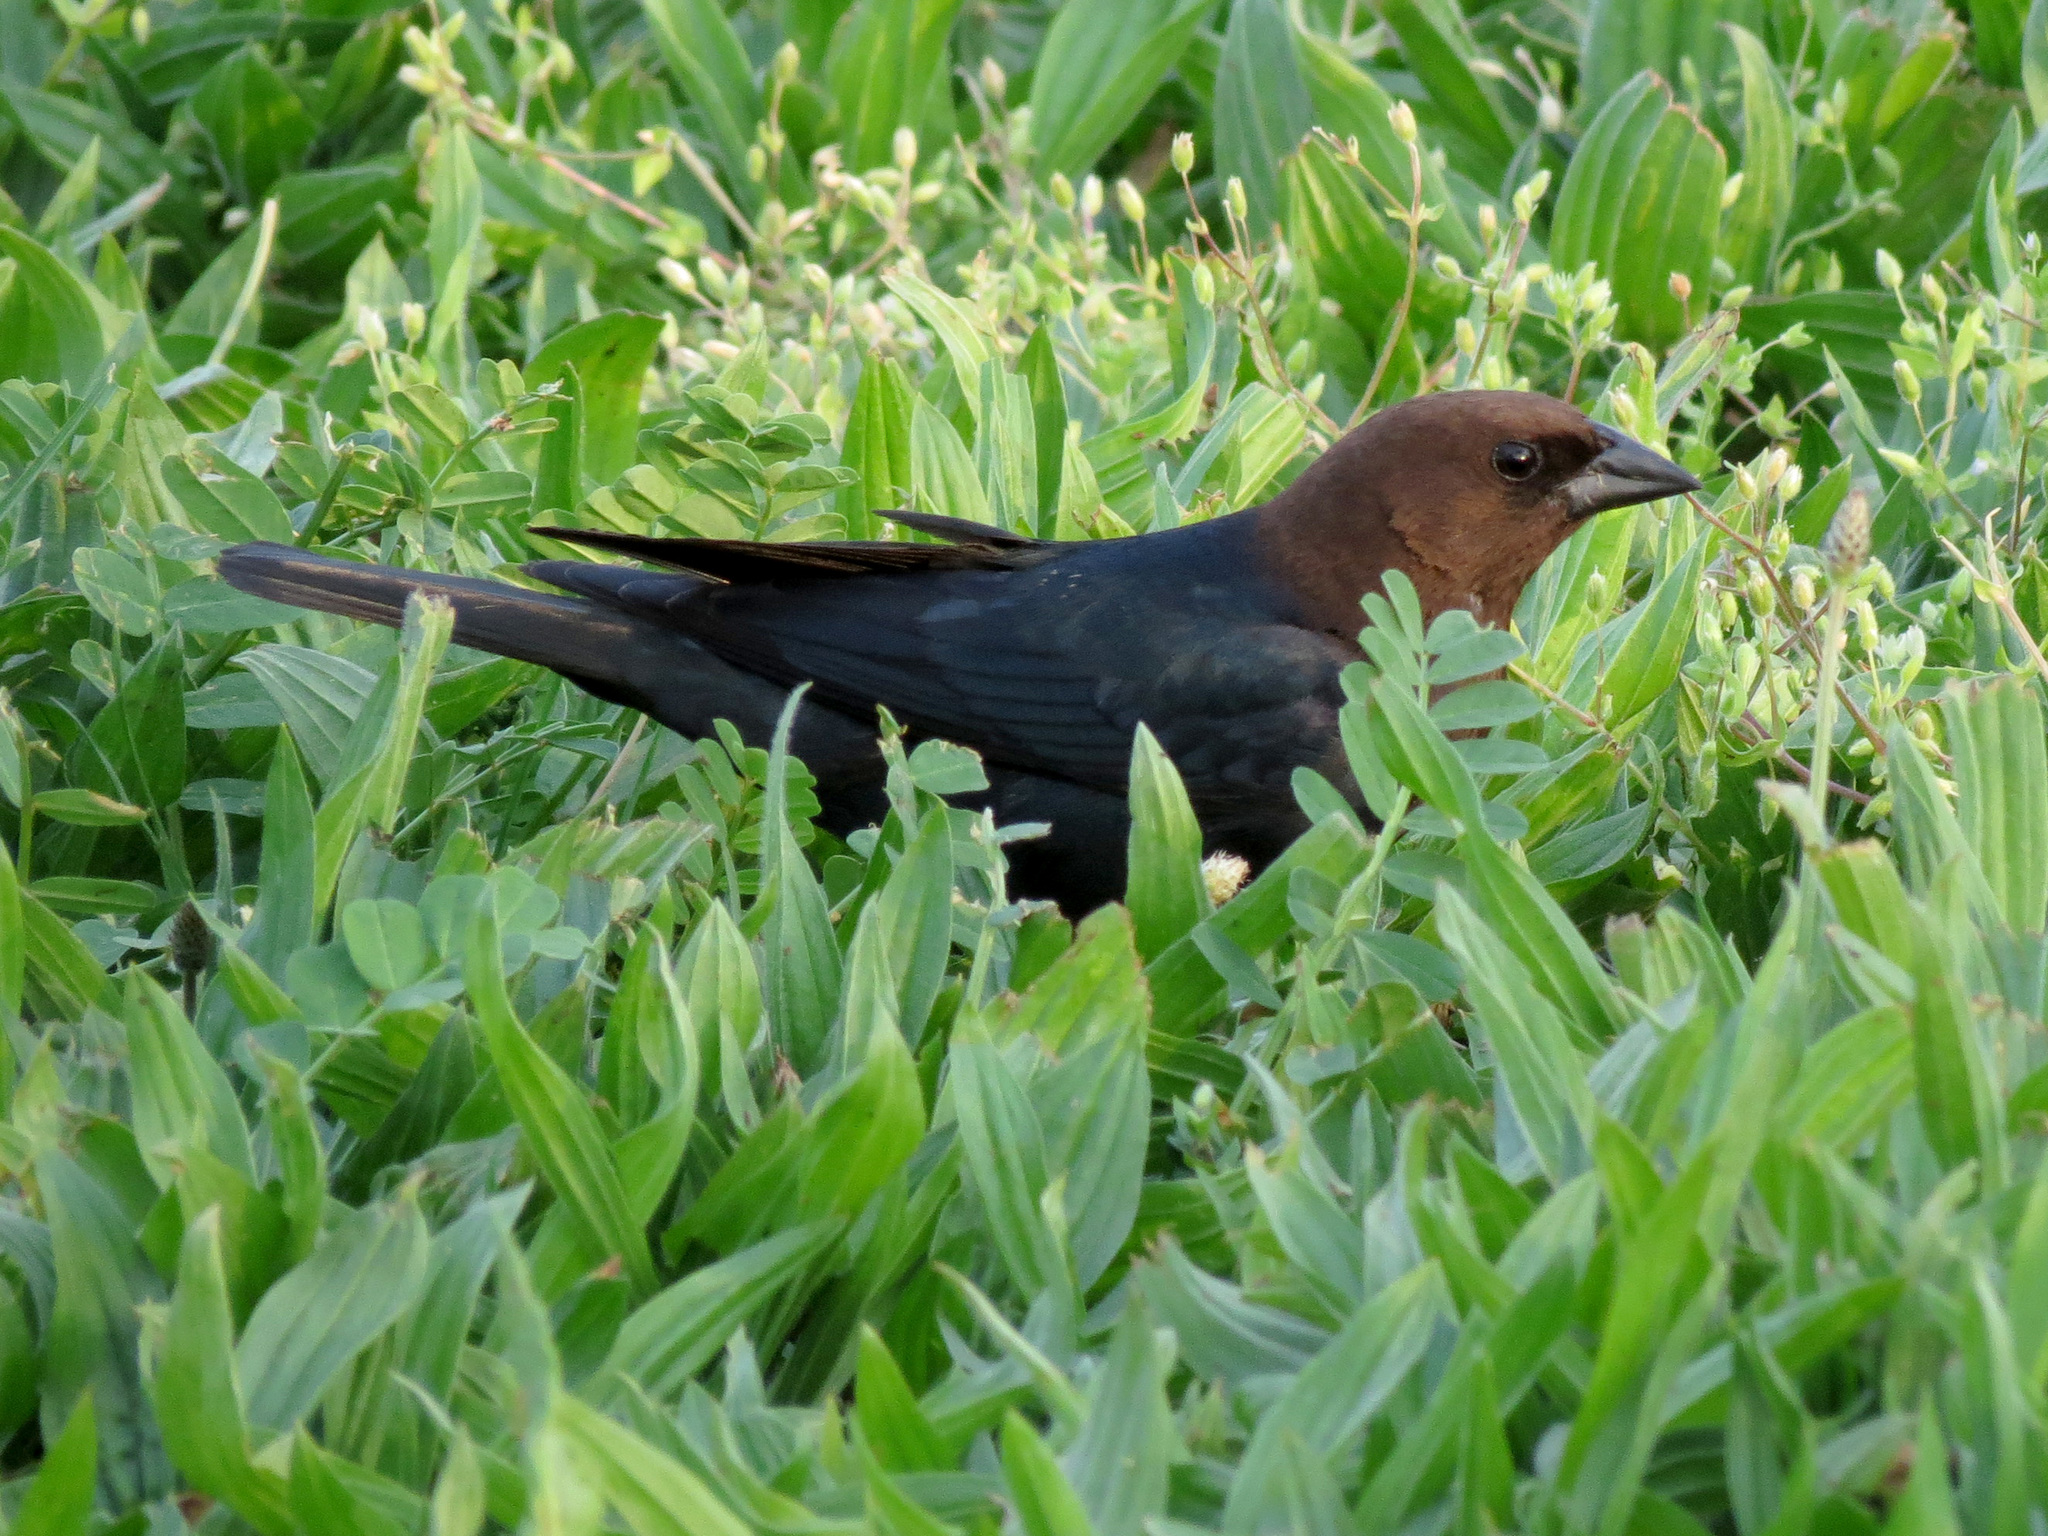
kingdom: Animalia
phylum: Chordata
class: Aves
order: Passeriformes
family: Icteridae
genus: Molothrus
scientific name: Molothrus ater
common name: Brown-headed cowbird
